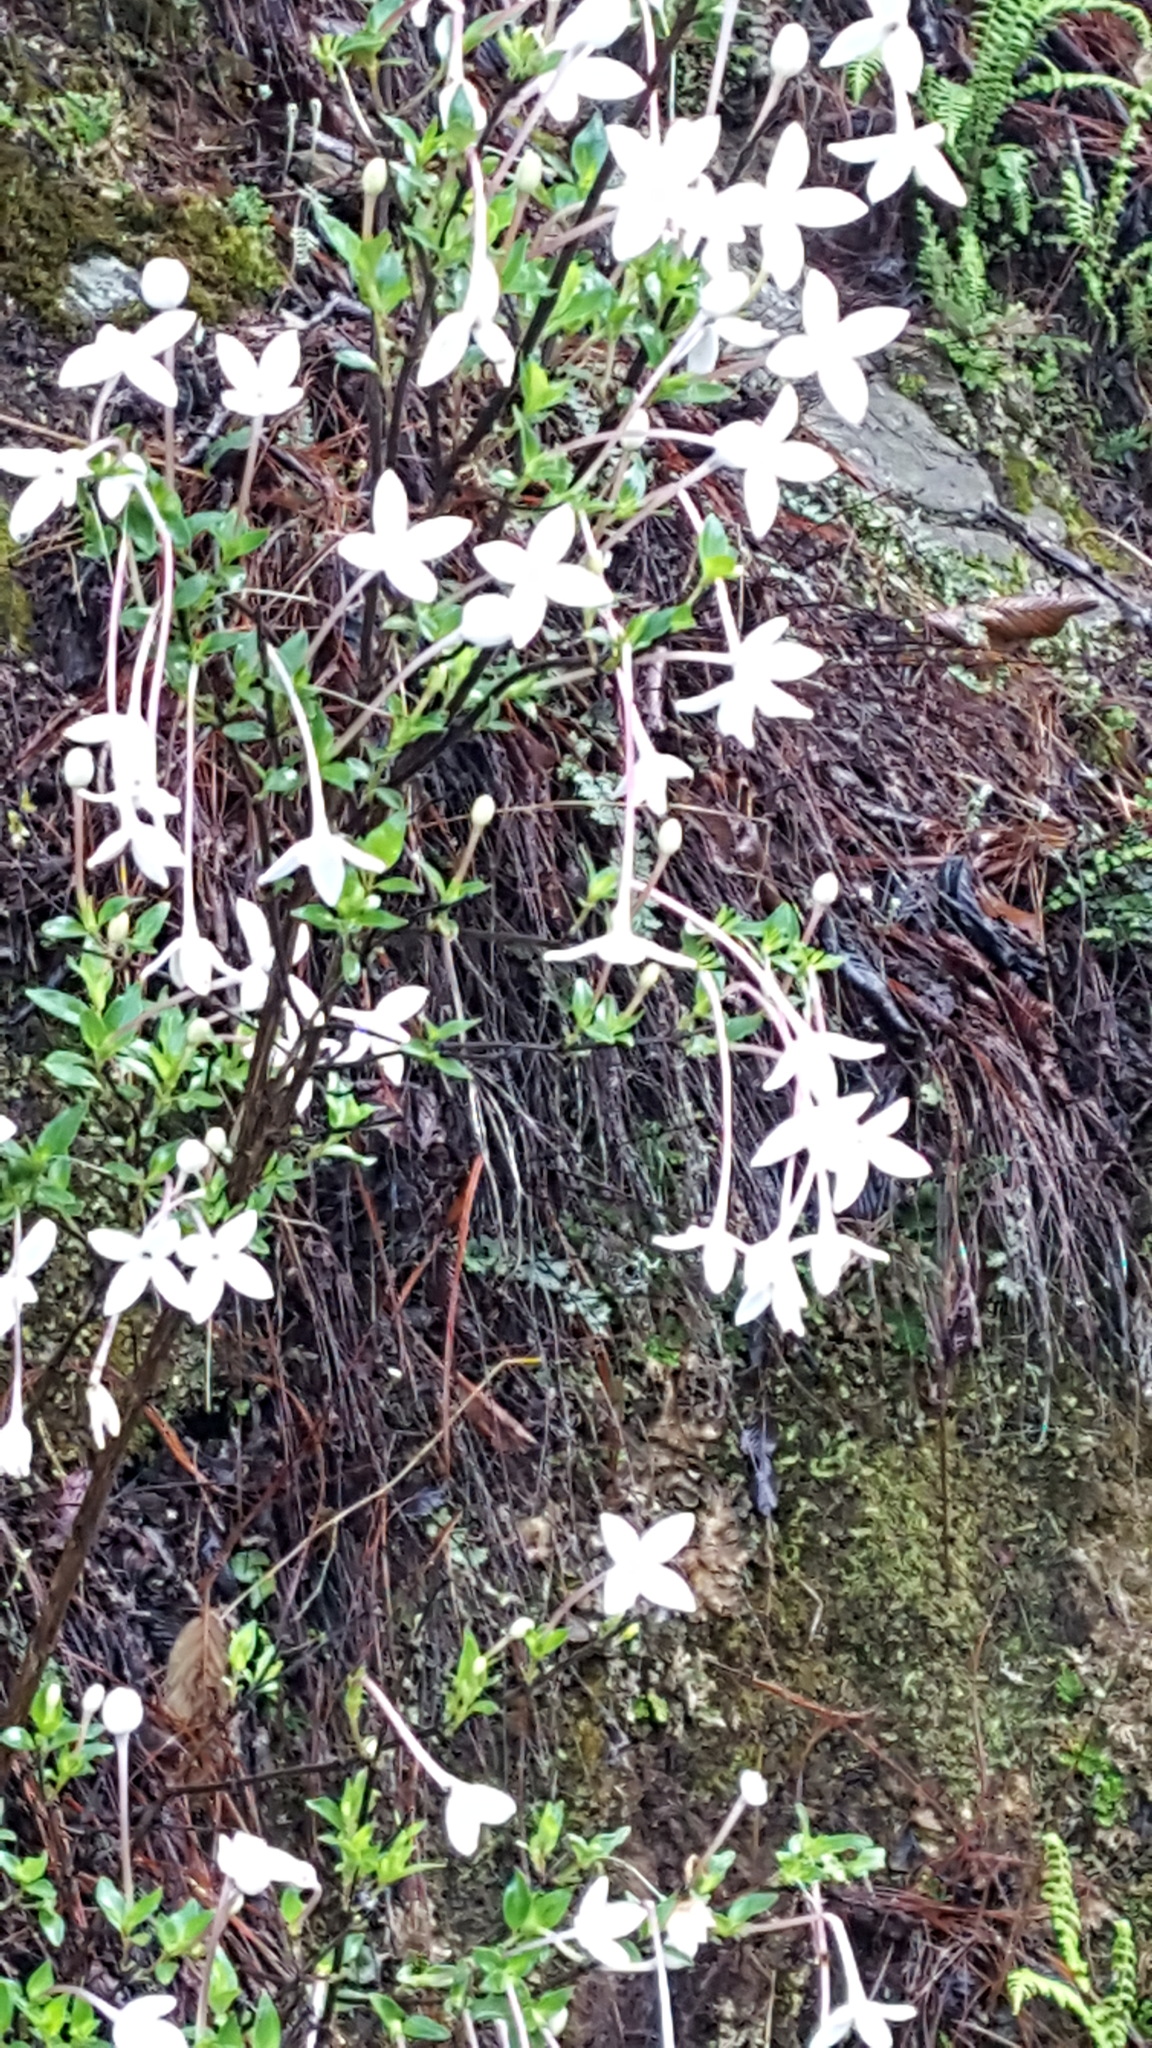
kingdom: Plantae
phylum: Tracheophyta
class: Magnoliopsida
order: Gentianales
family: Rubiaceae
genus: Bouvardia
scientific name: Bouvardia longiflora
